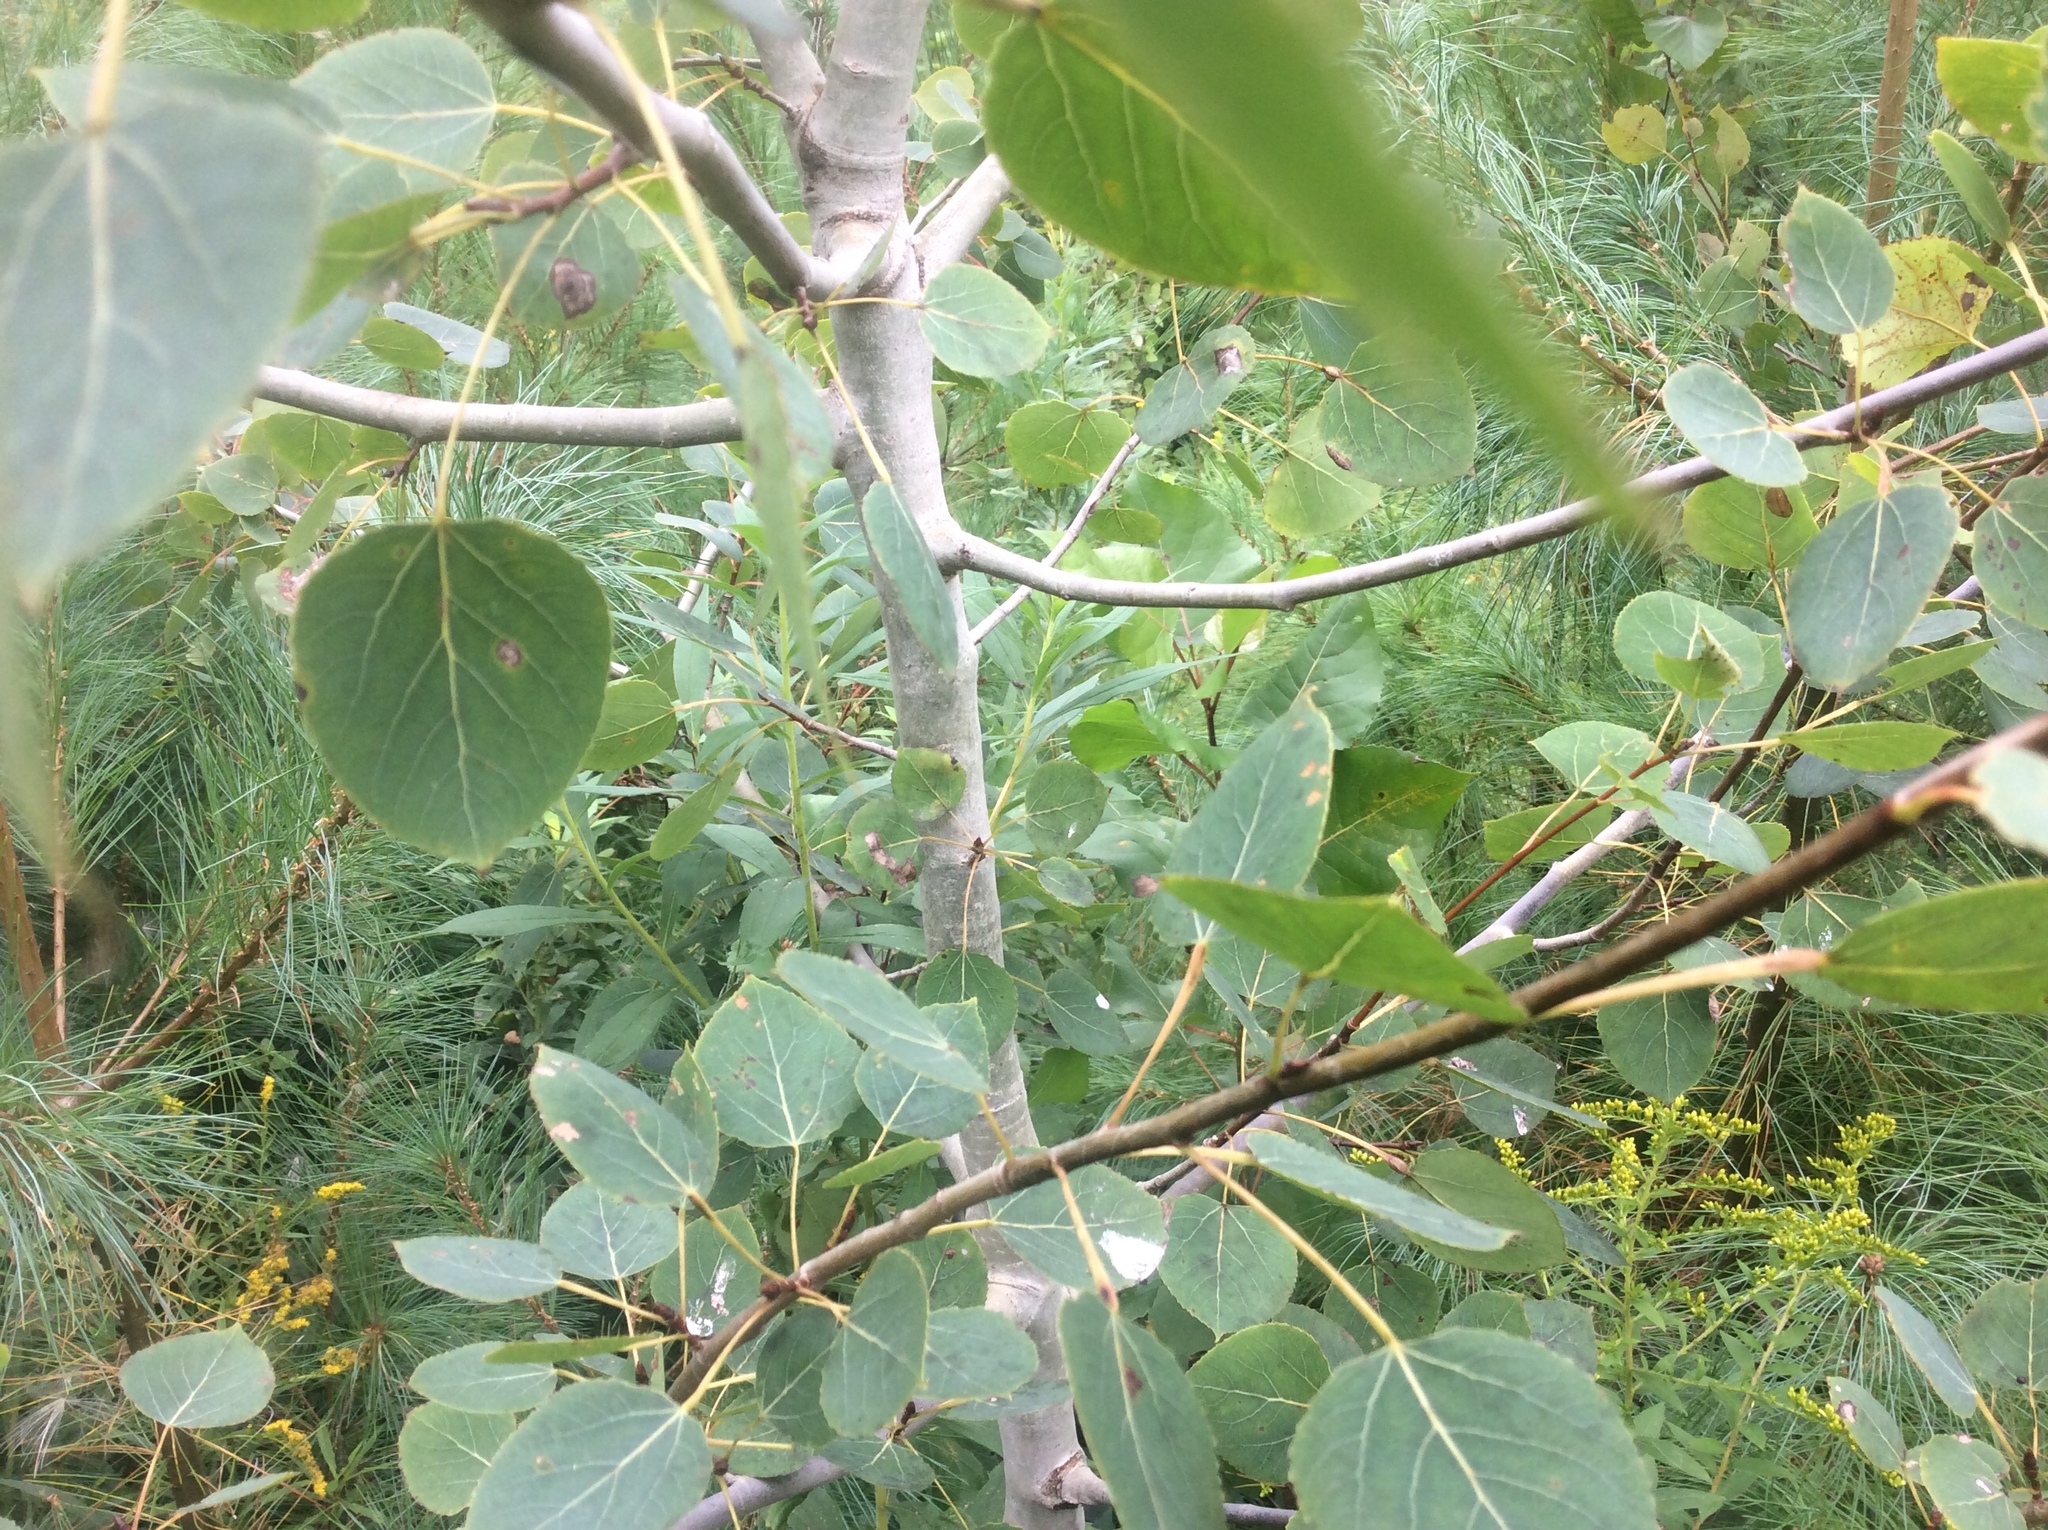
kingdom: Plantae
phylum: Tracheophyta
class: Magnoliopsida
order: Malpighiales
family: Salicaceae
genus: Populus
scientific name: Populus tremuloides
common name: Quaking aspen
